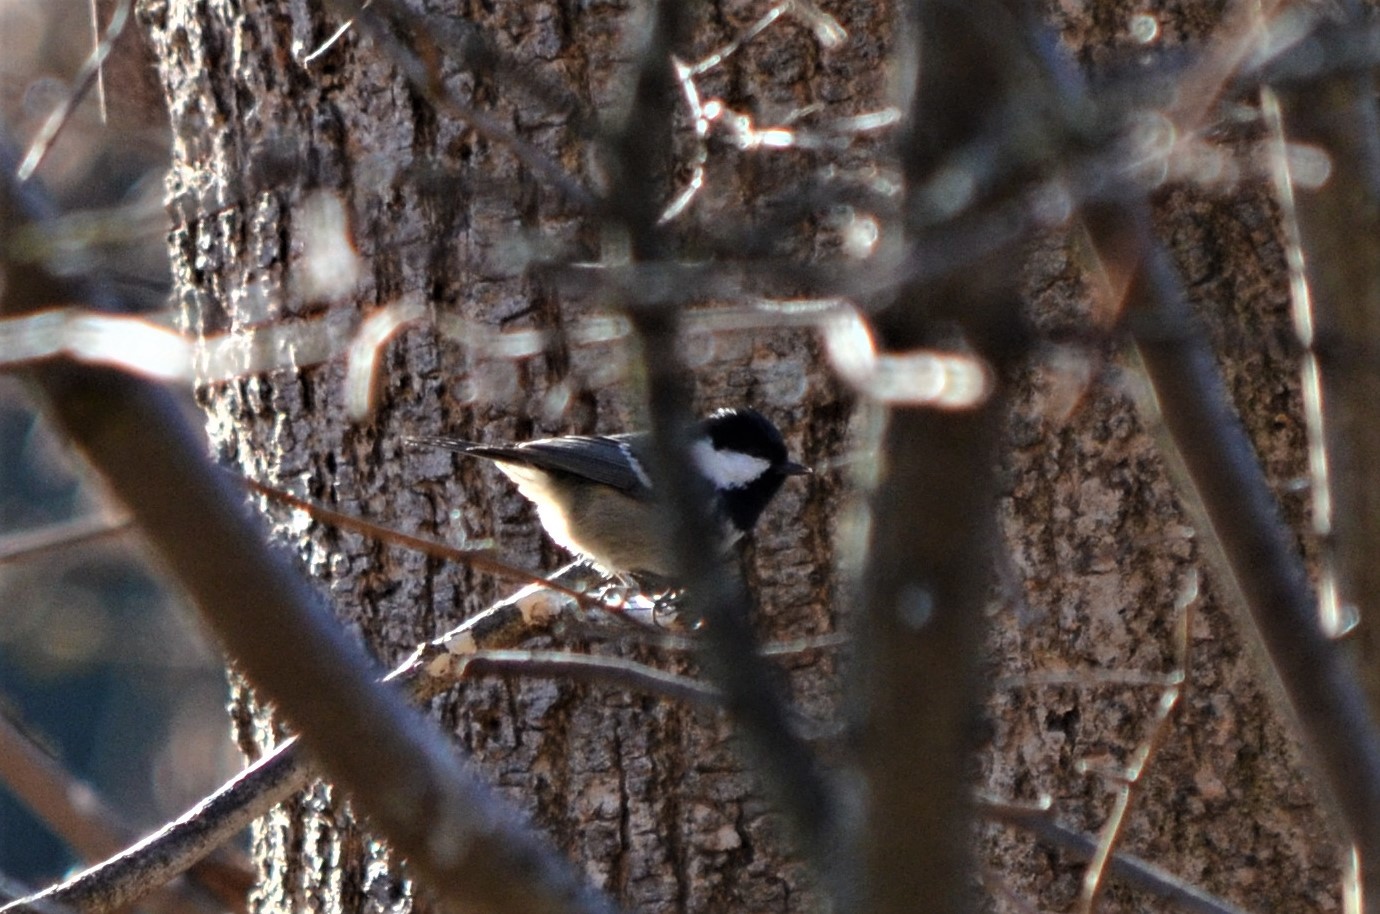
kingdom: Animalia
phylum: Chordata
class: Aves
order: Passeriformes
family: Paridae
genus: Periparus
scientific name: Periparus ater
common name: Coal tit
